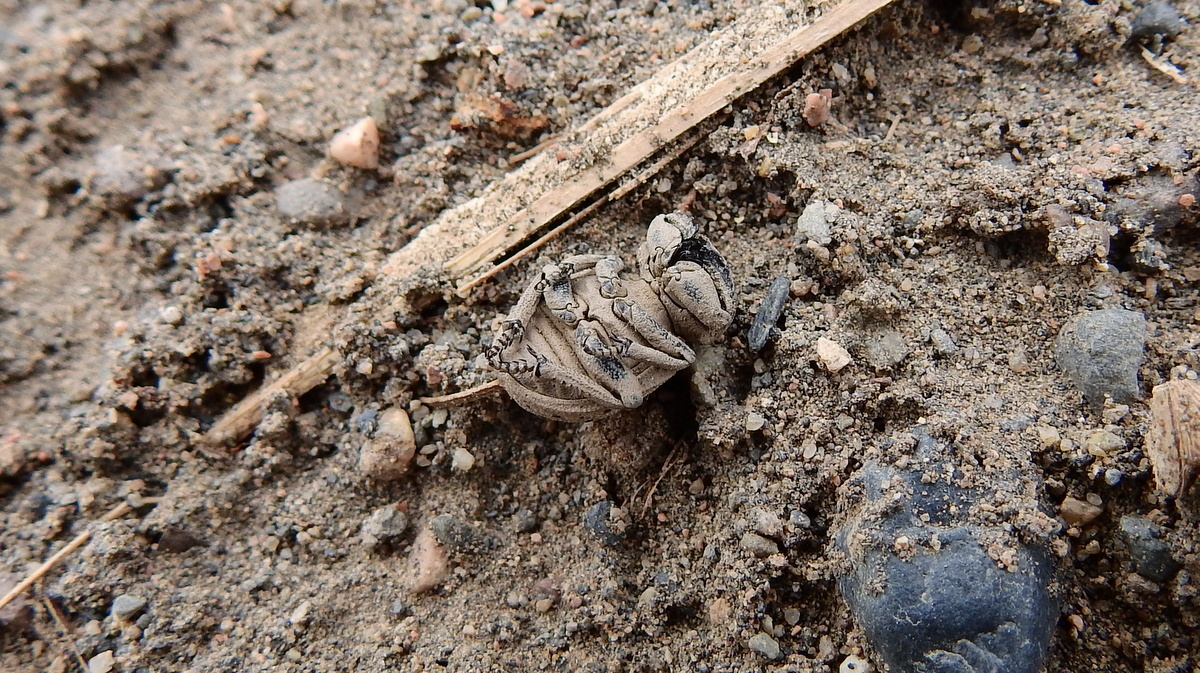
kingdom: Animalia
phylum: Arthropoda
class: Insecta
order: Coleoptera
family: Trogidae
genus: Omorgus
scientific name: Omorgus pastillarius
